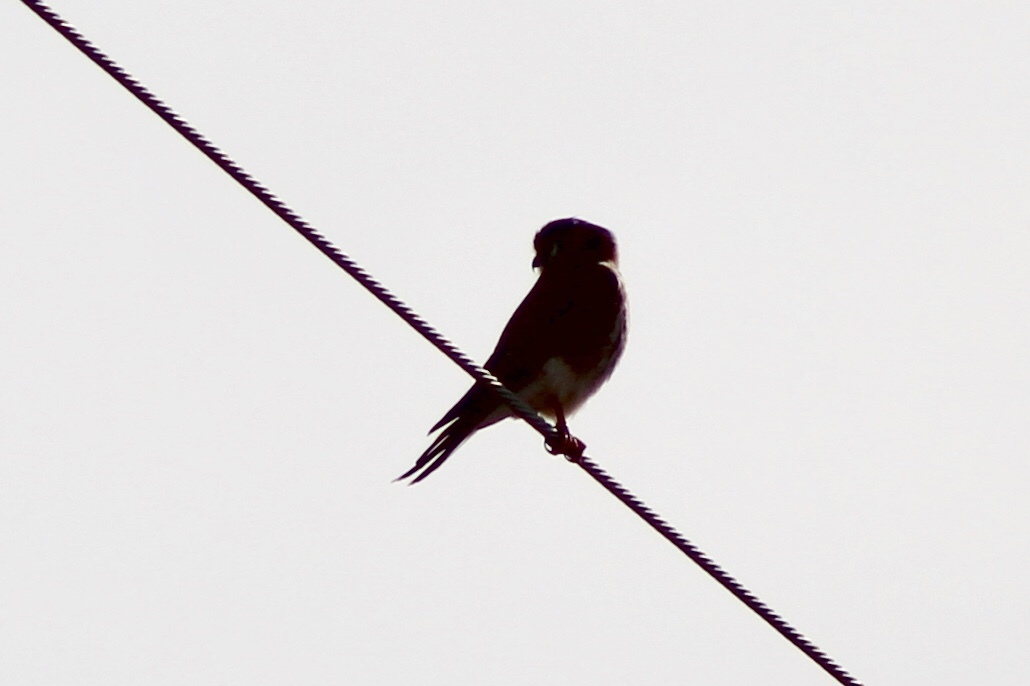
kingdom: Animalia
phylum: Chordata
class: Aves
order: Falconiformes
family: Falconidae
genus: Falco
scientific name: Falco sparverius
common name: American kestrel
